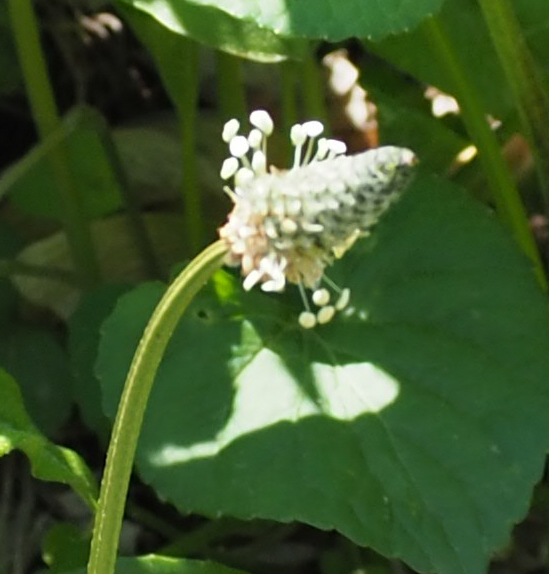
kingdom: Plantae
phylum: Tracheophyta
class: Magnoliopsida
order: Lamiales
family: Plantaginaceae
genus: Plantago
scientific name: Plantago lanceolata
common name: Ribwort plantain
